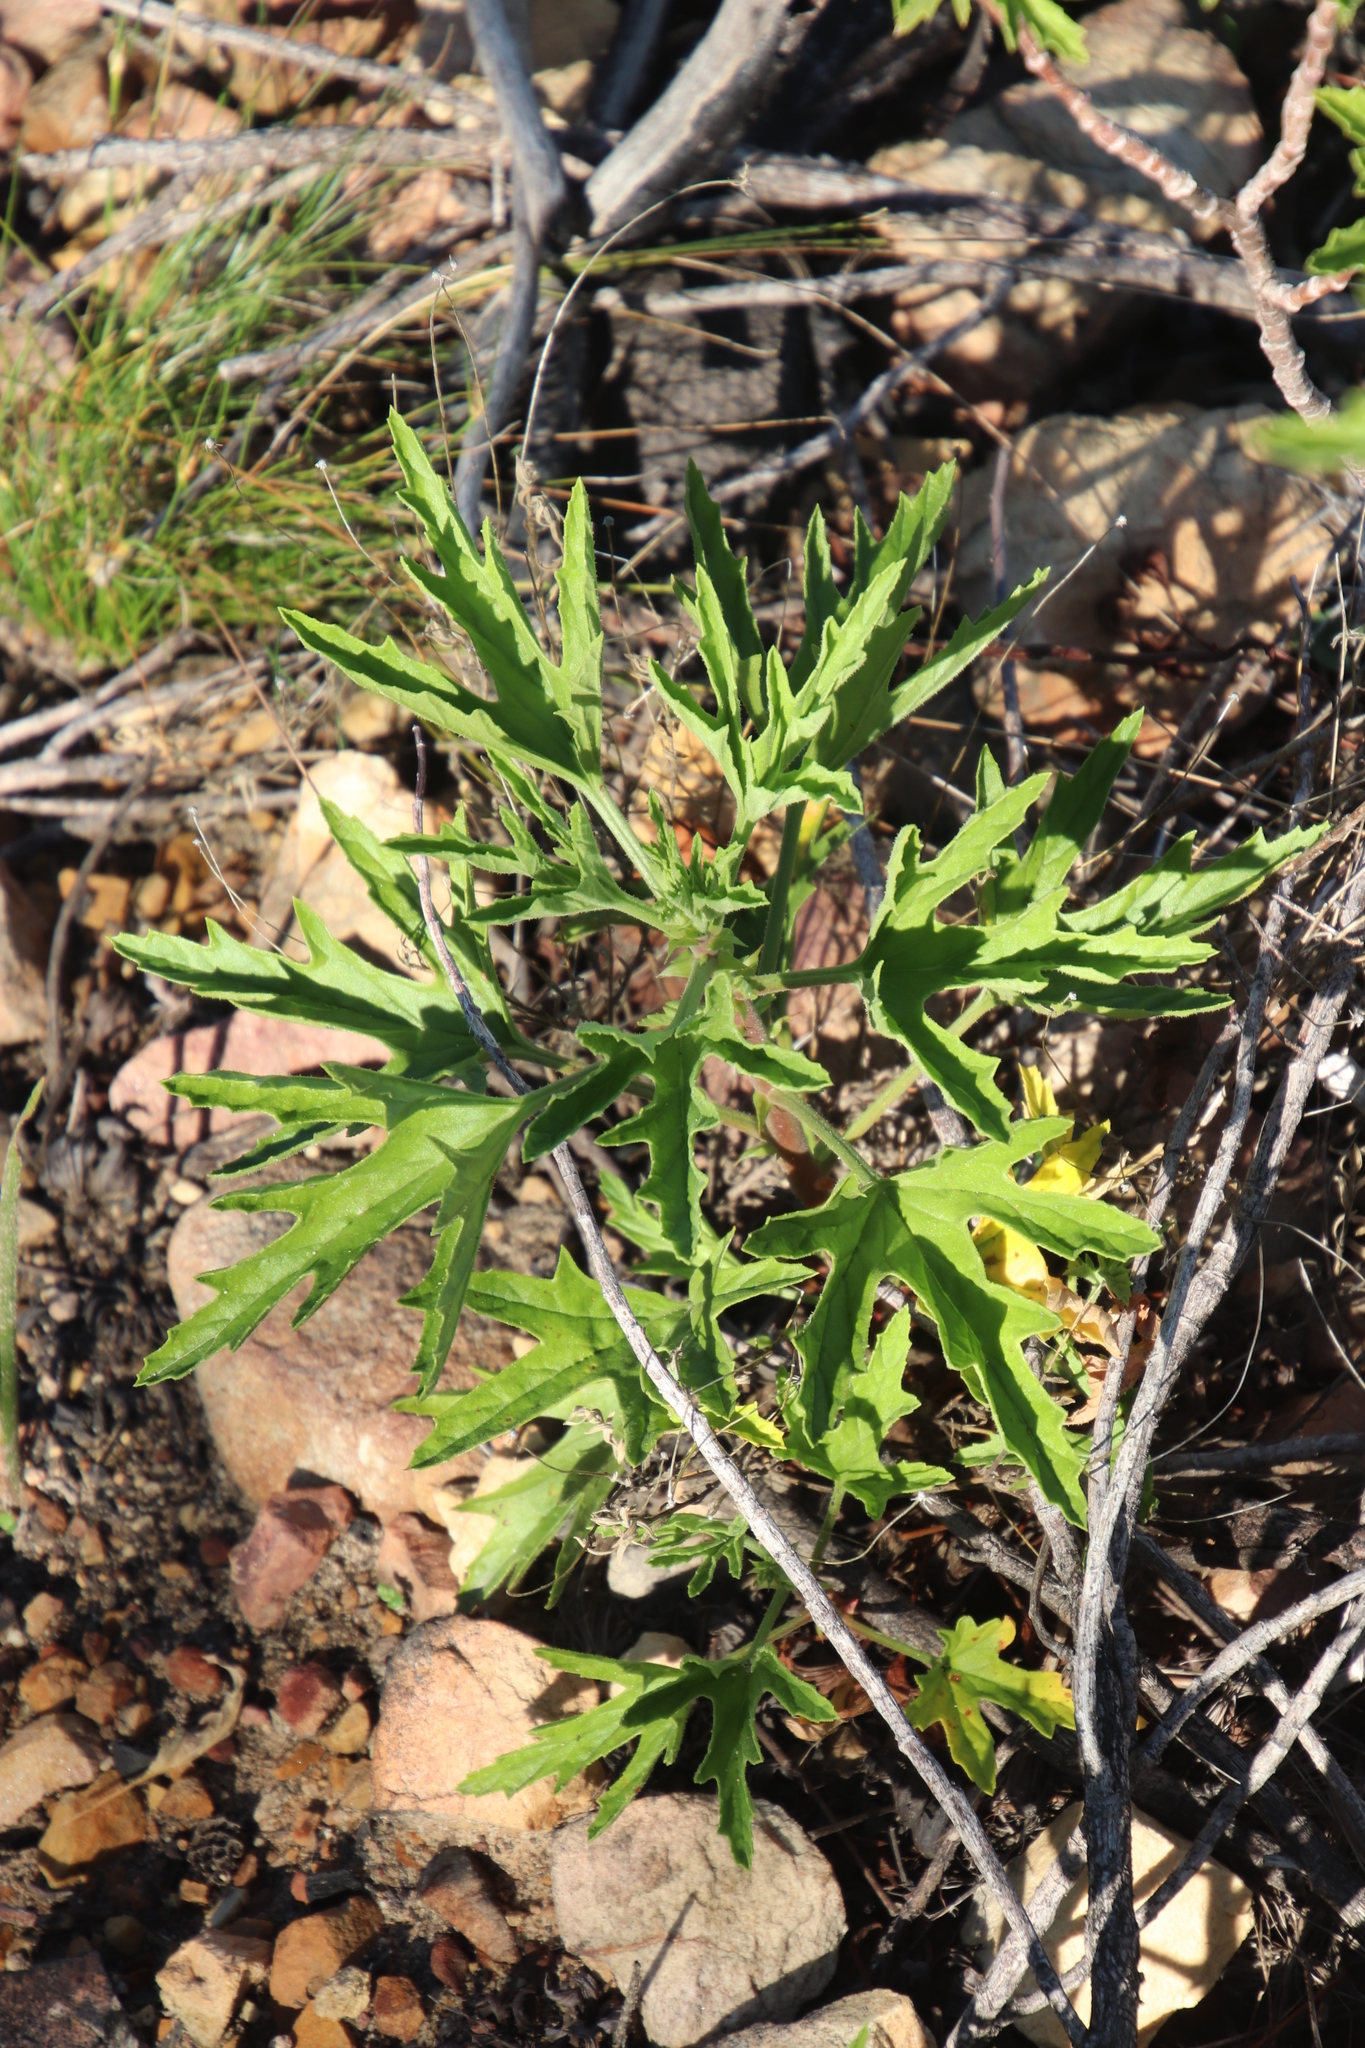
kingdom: Plantae
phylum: Tracheophyta
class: Magnoliopsida
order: Geraniales
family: Geraniaceae
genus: Pelargonium
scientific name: Pelargonium scabrum
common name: Apricot geranium
